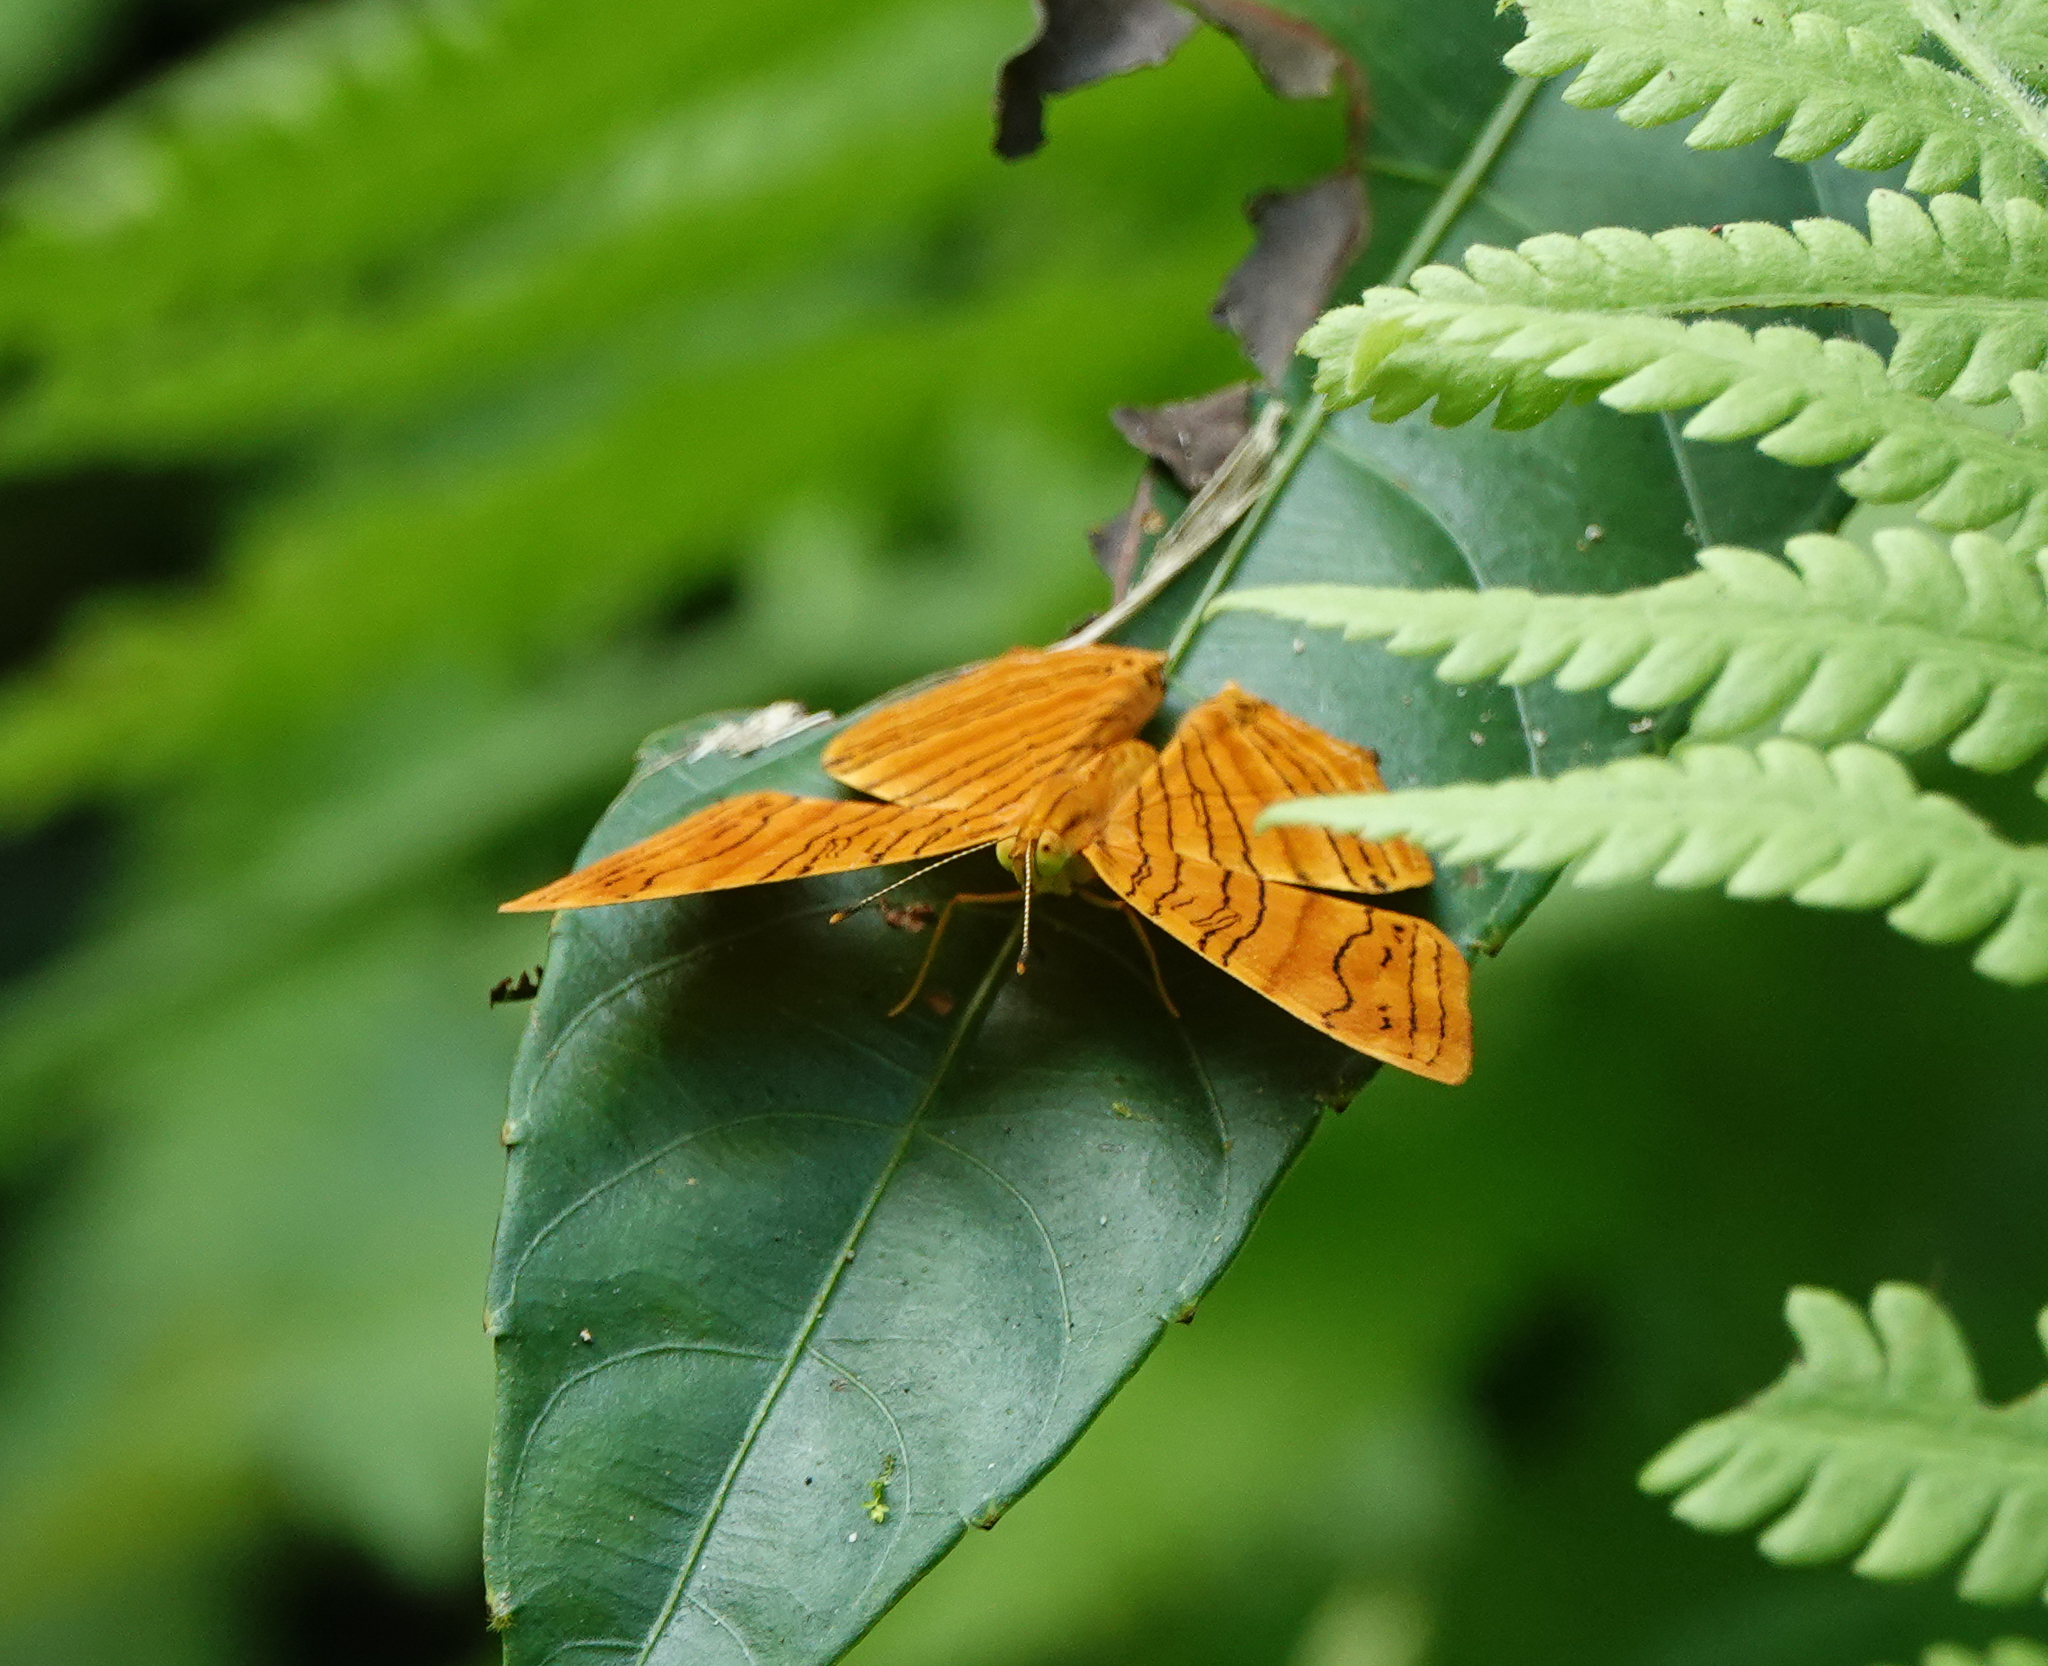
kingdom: Animalia
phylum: Arthropoda
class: Insecta
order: Lepidoptera
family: Nymphalidae
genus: Chersonesia
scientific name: Chersonesia intermedia
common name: Intermediate maplet
